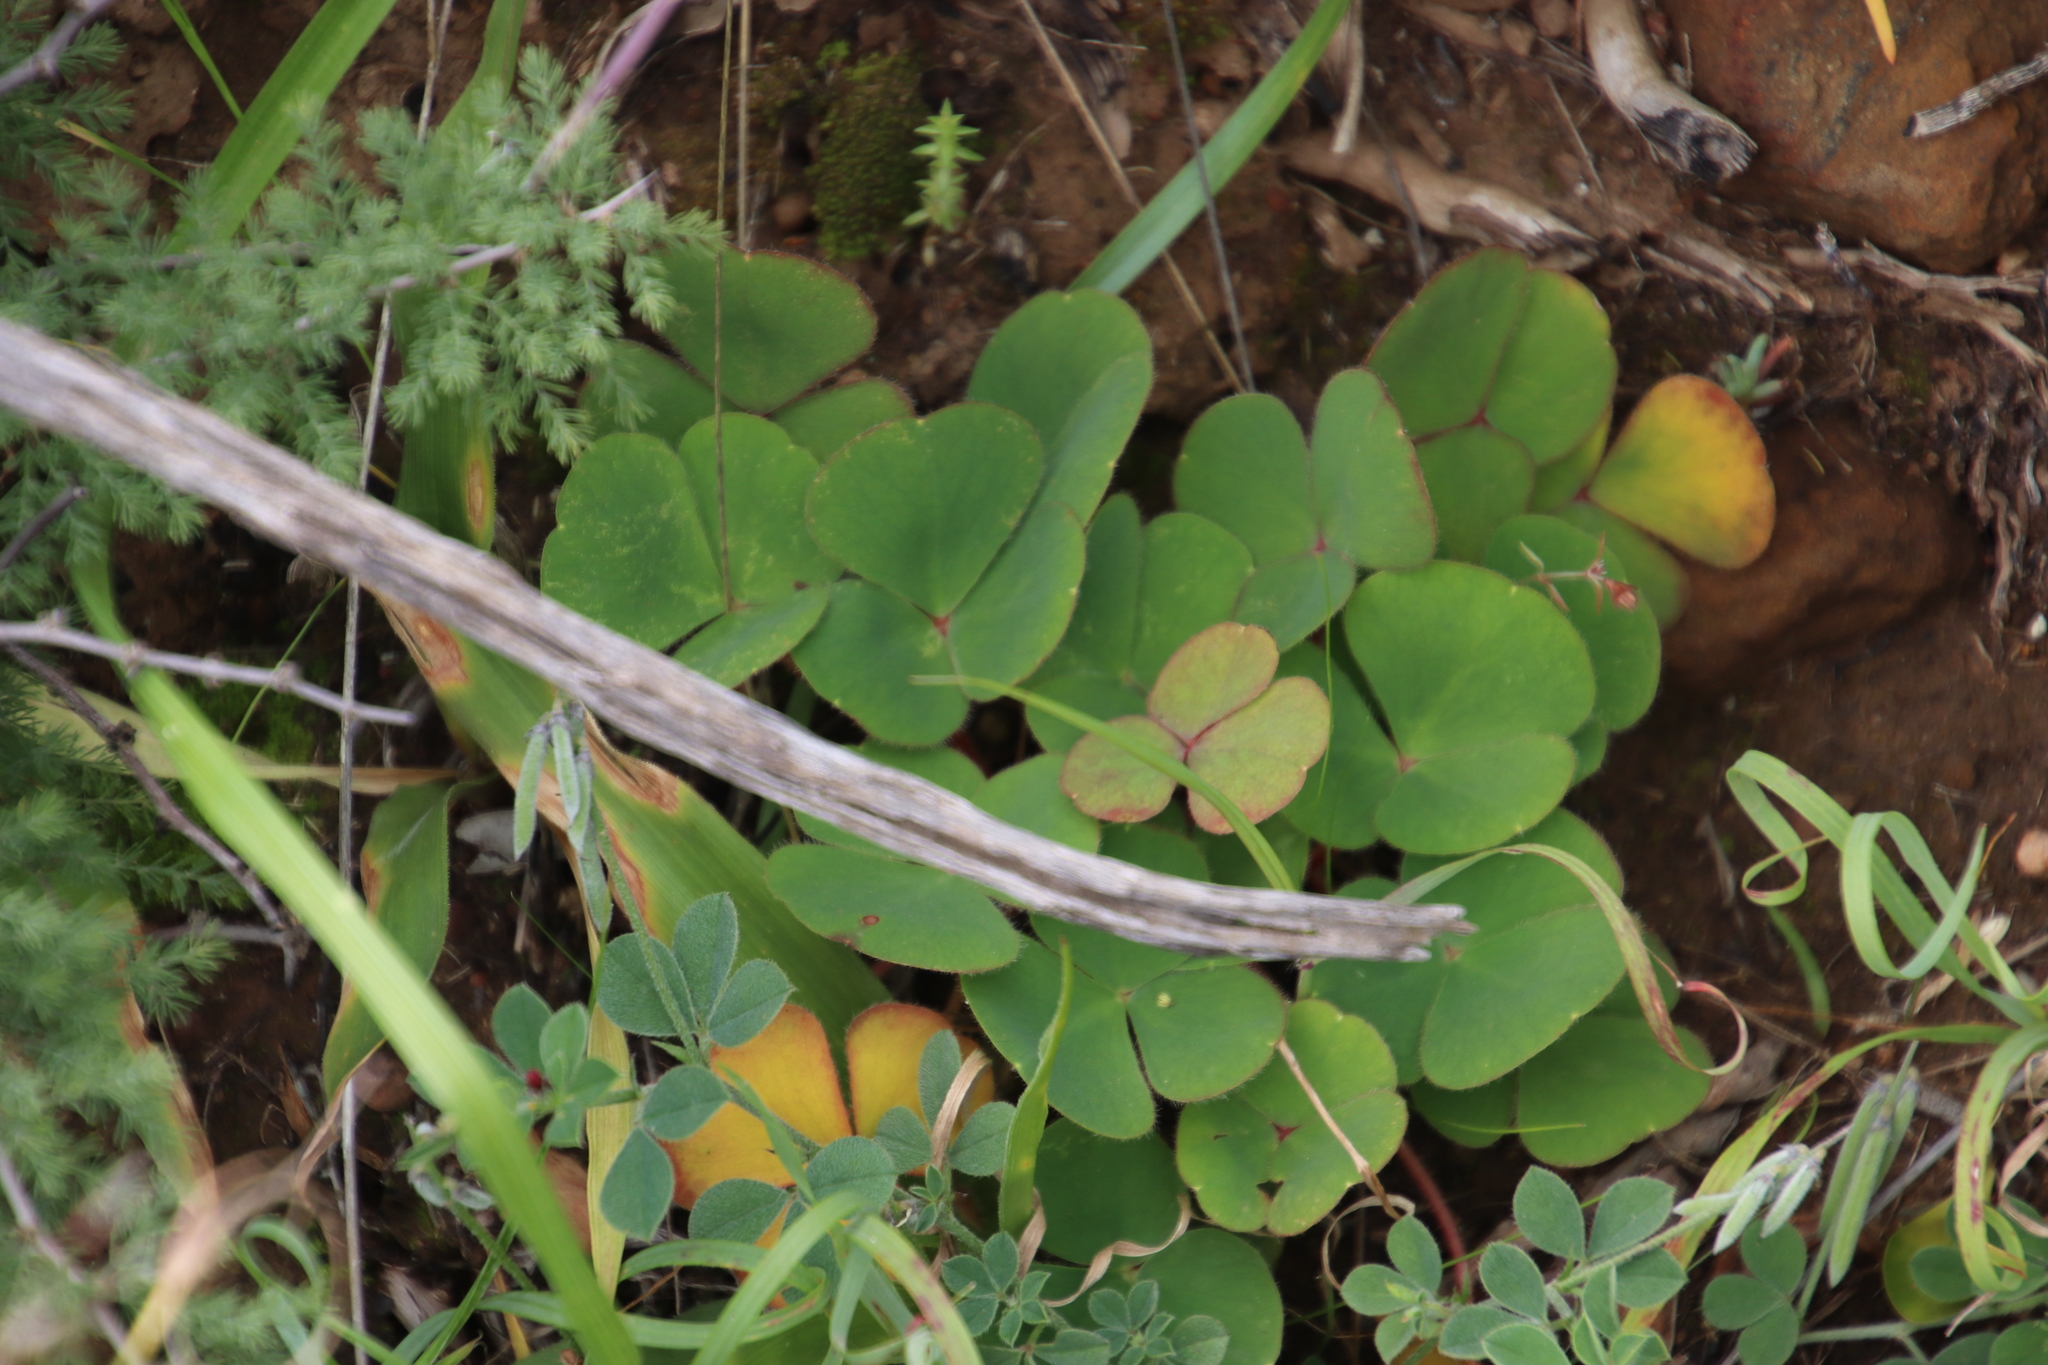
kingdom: Plantae
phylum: Tracheophyta
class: Magnoliopsida
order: Oxalidales
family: Oxalidaceae
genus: Oxalis
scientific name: Oxalis purpurea
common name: Purple woodsorrel
